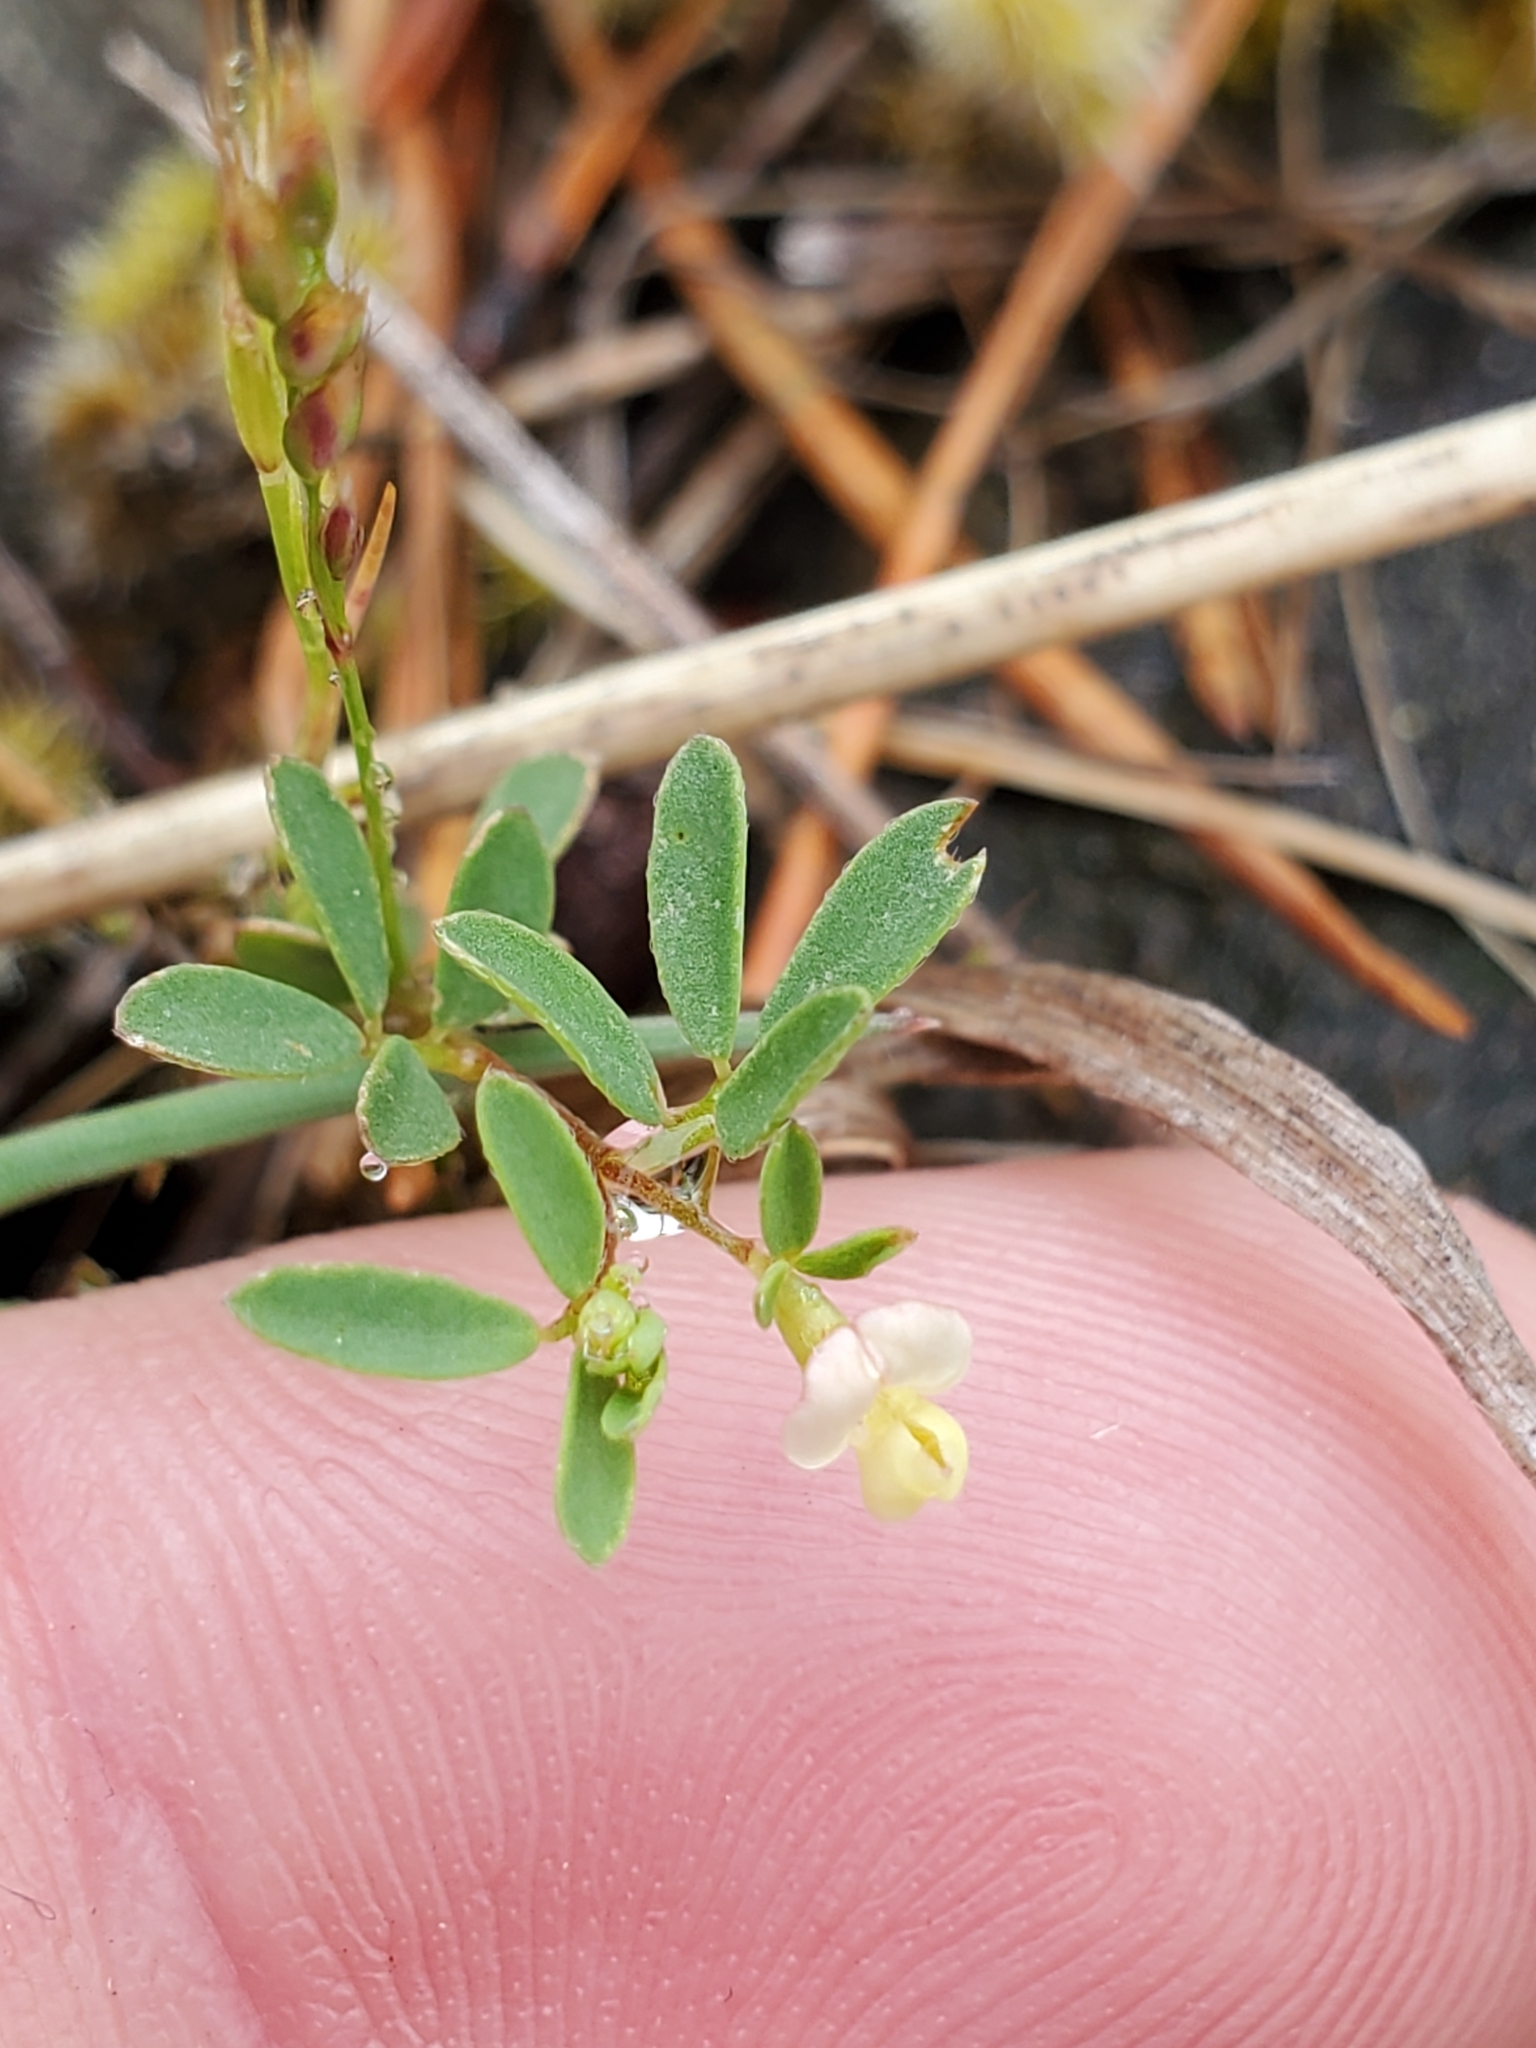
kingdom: Plantae
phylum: Tracheophyta
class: Magnoliopsida
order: Fabales
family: Fabaceae
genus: Acmispon
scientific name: Acmispon parviflorus
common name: Desert deer-vetch
